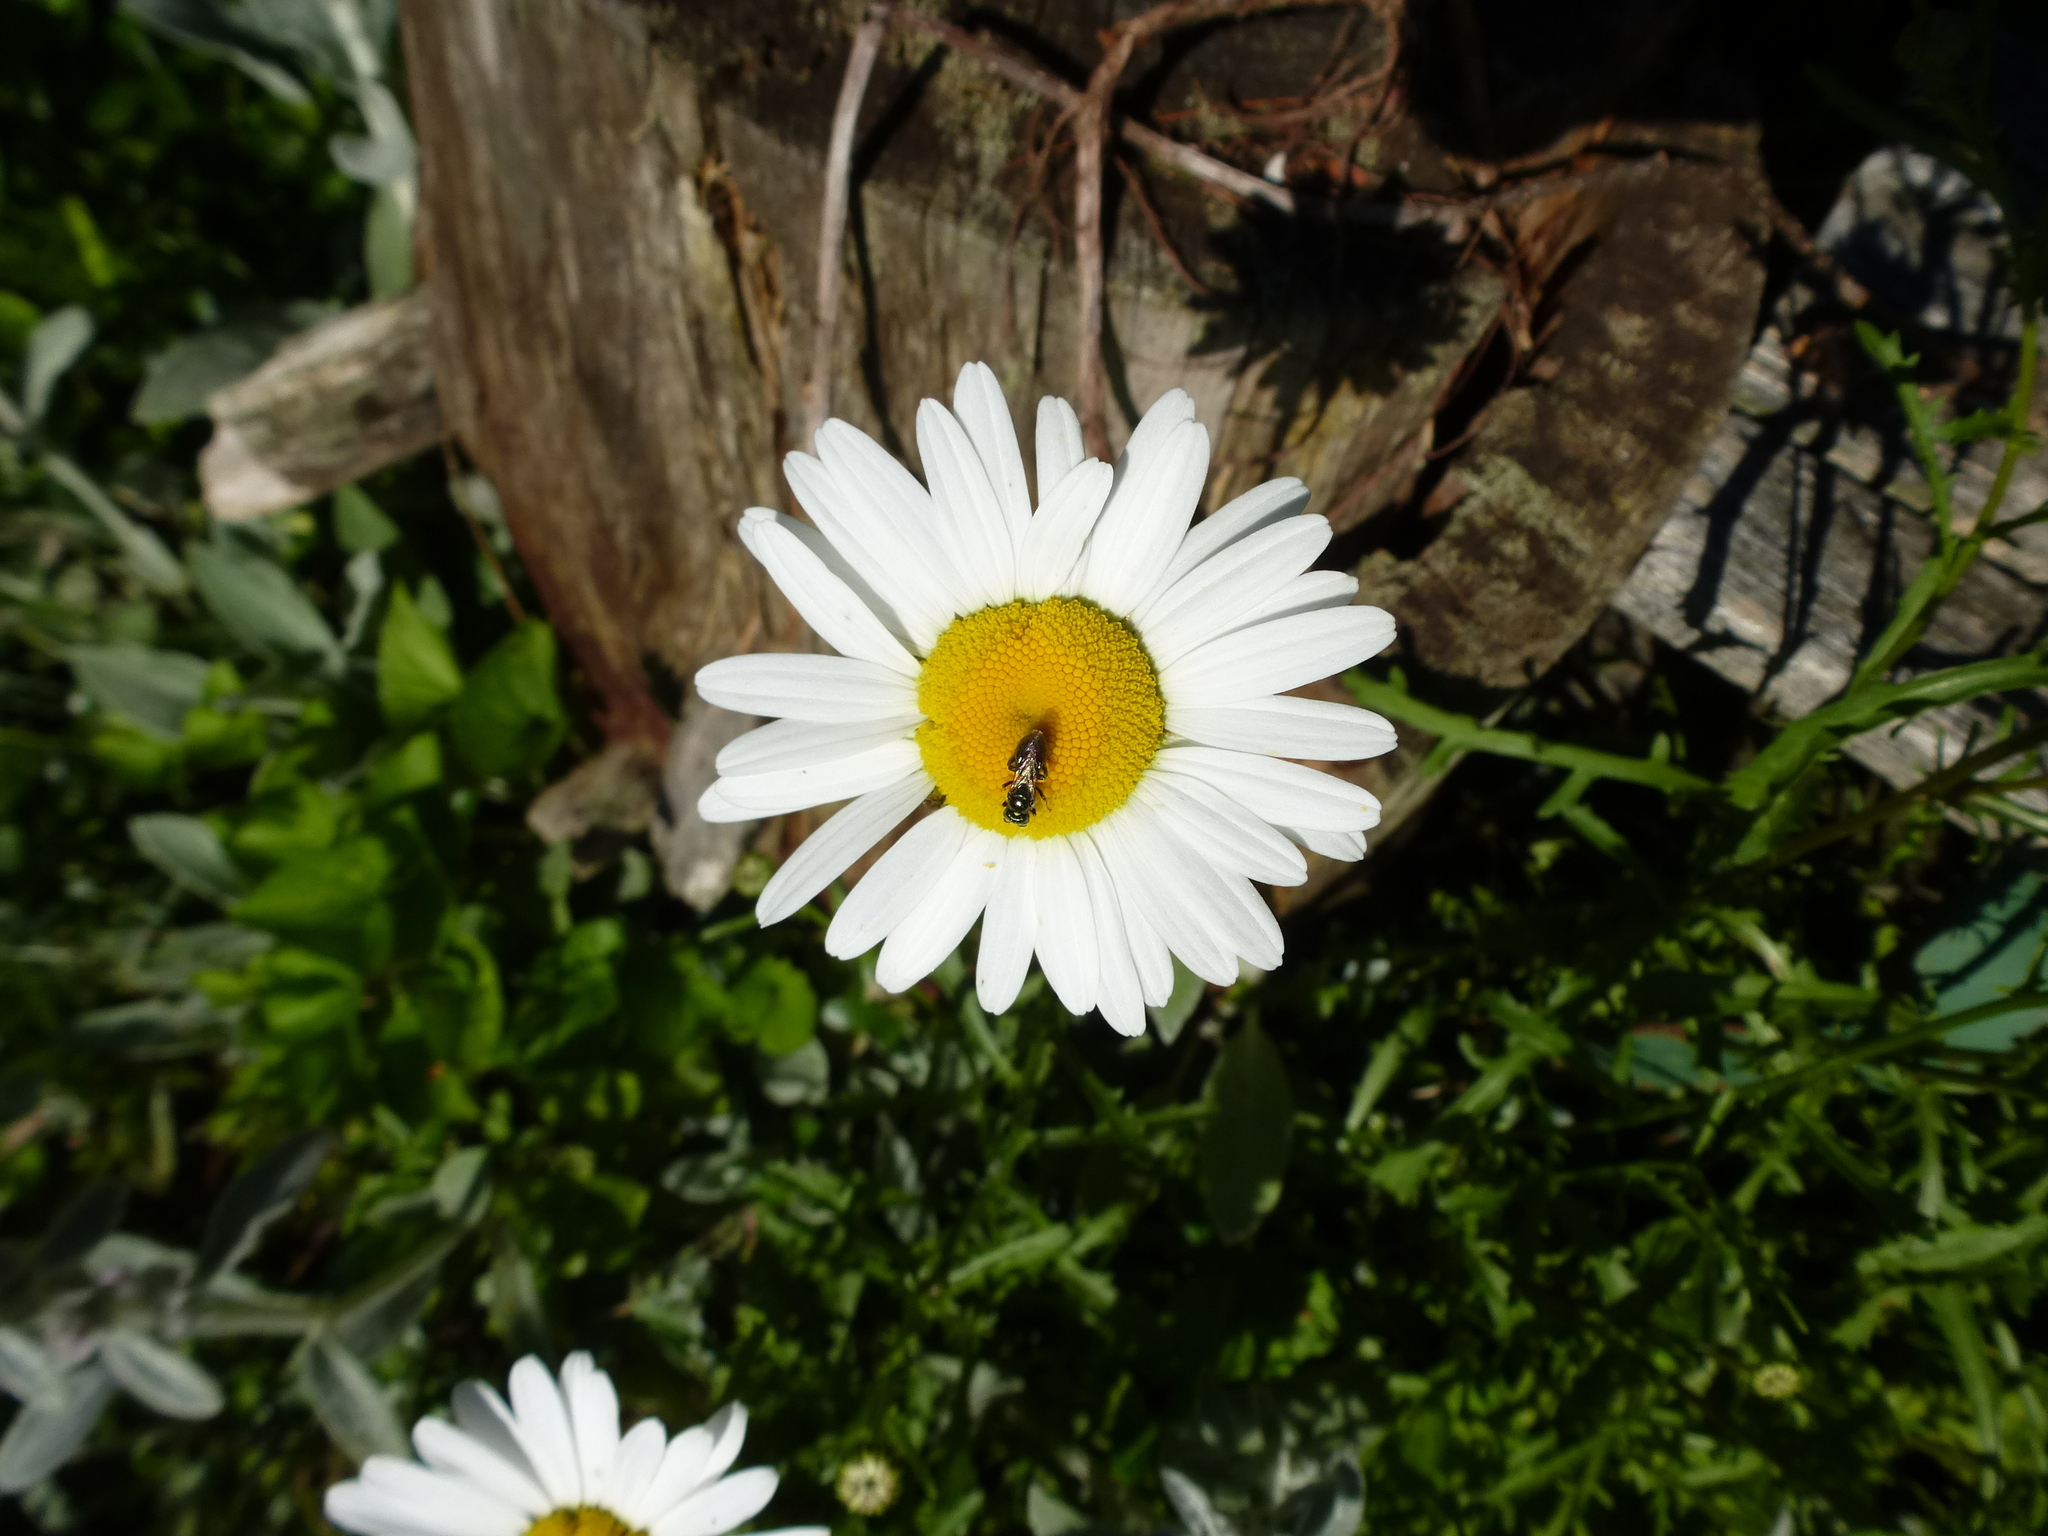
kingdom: Animalia
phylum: Arthropoda
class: Insecta
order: Hymenoptera
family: Apidae
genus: Zadontomerus
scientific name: Zadontomerus
